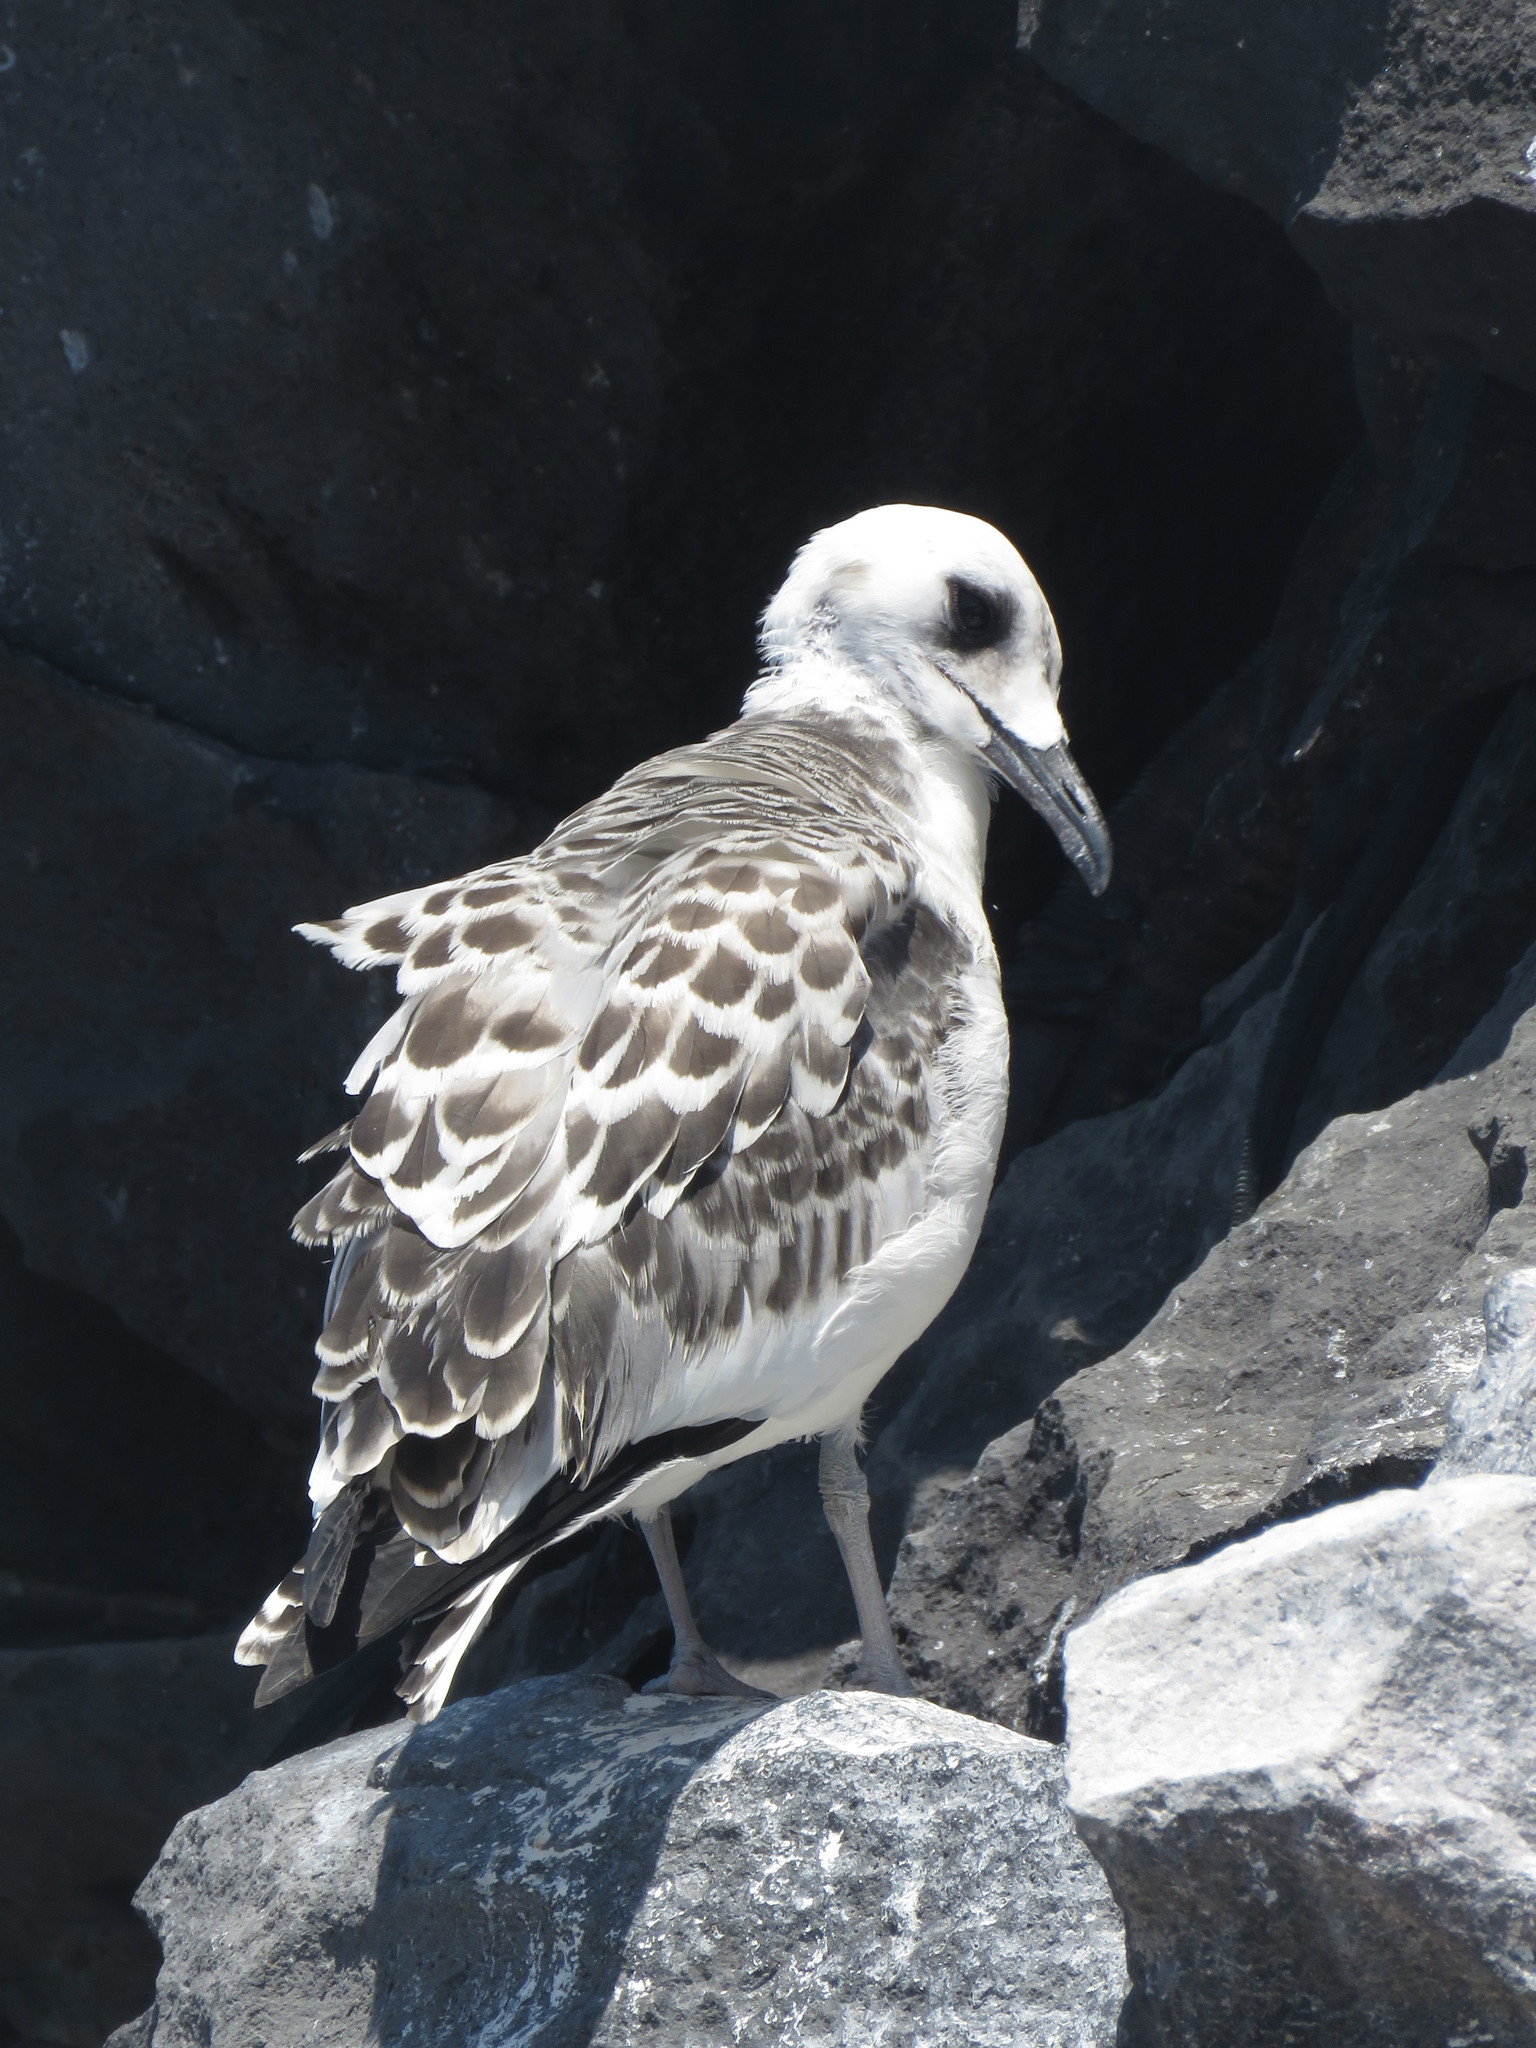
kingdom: Animalia
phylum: Chordata
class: Aves
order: Charadriiformes
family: Laridae
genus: Creagrus
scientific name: Creagrus furcatus
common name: Swallow-tailed gull
